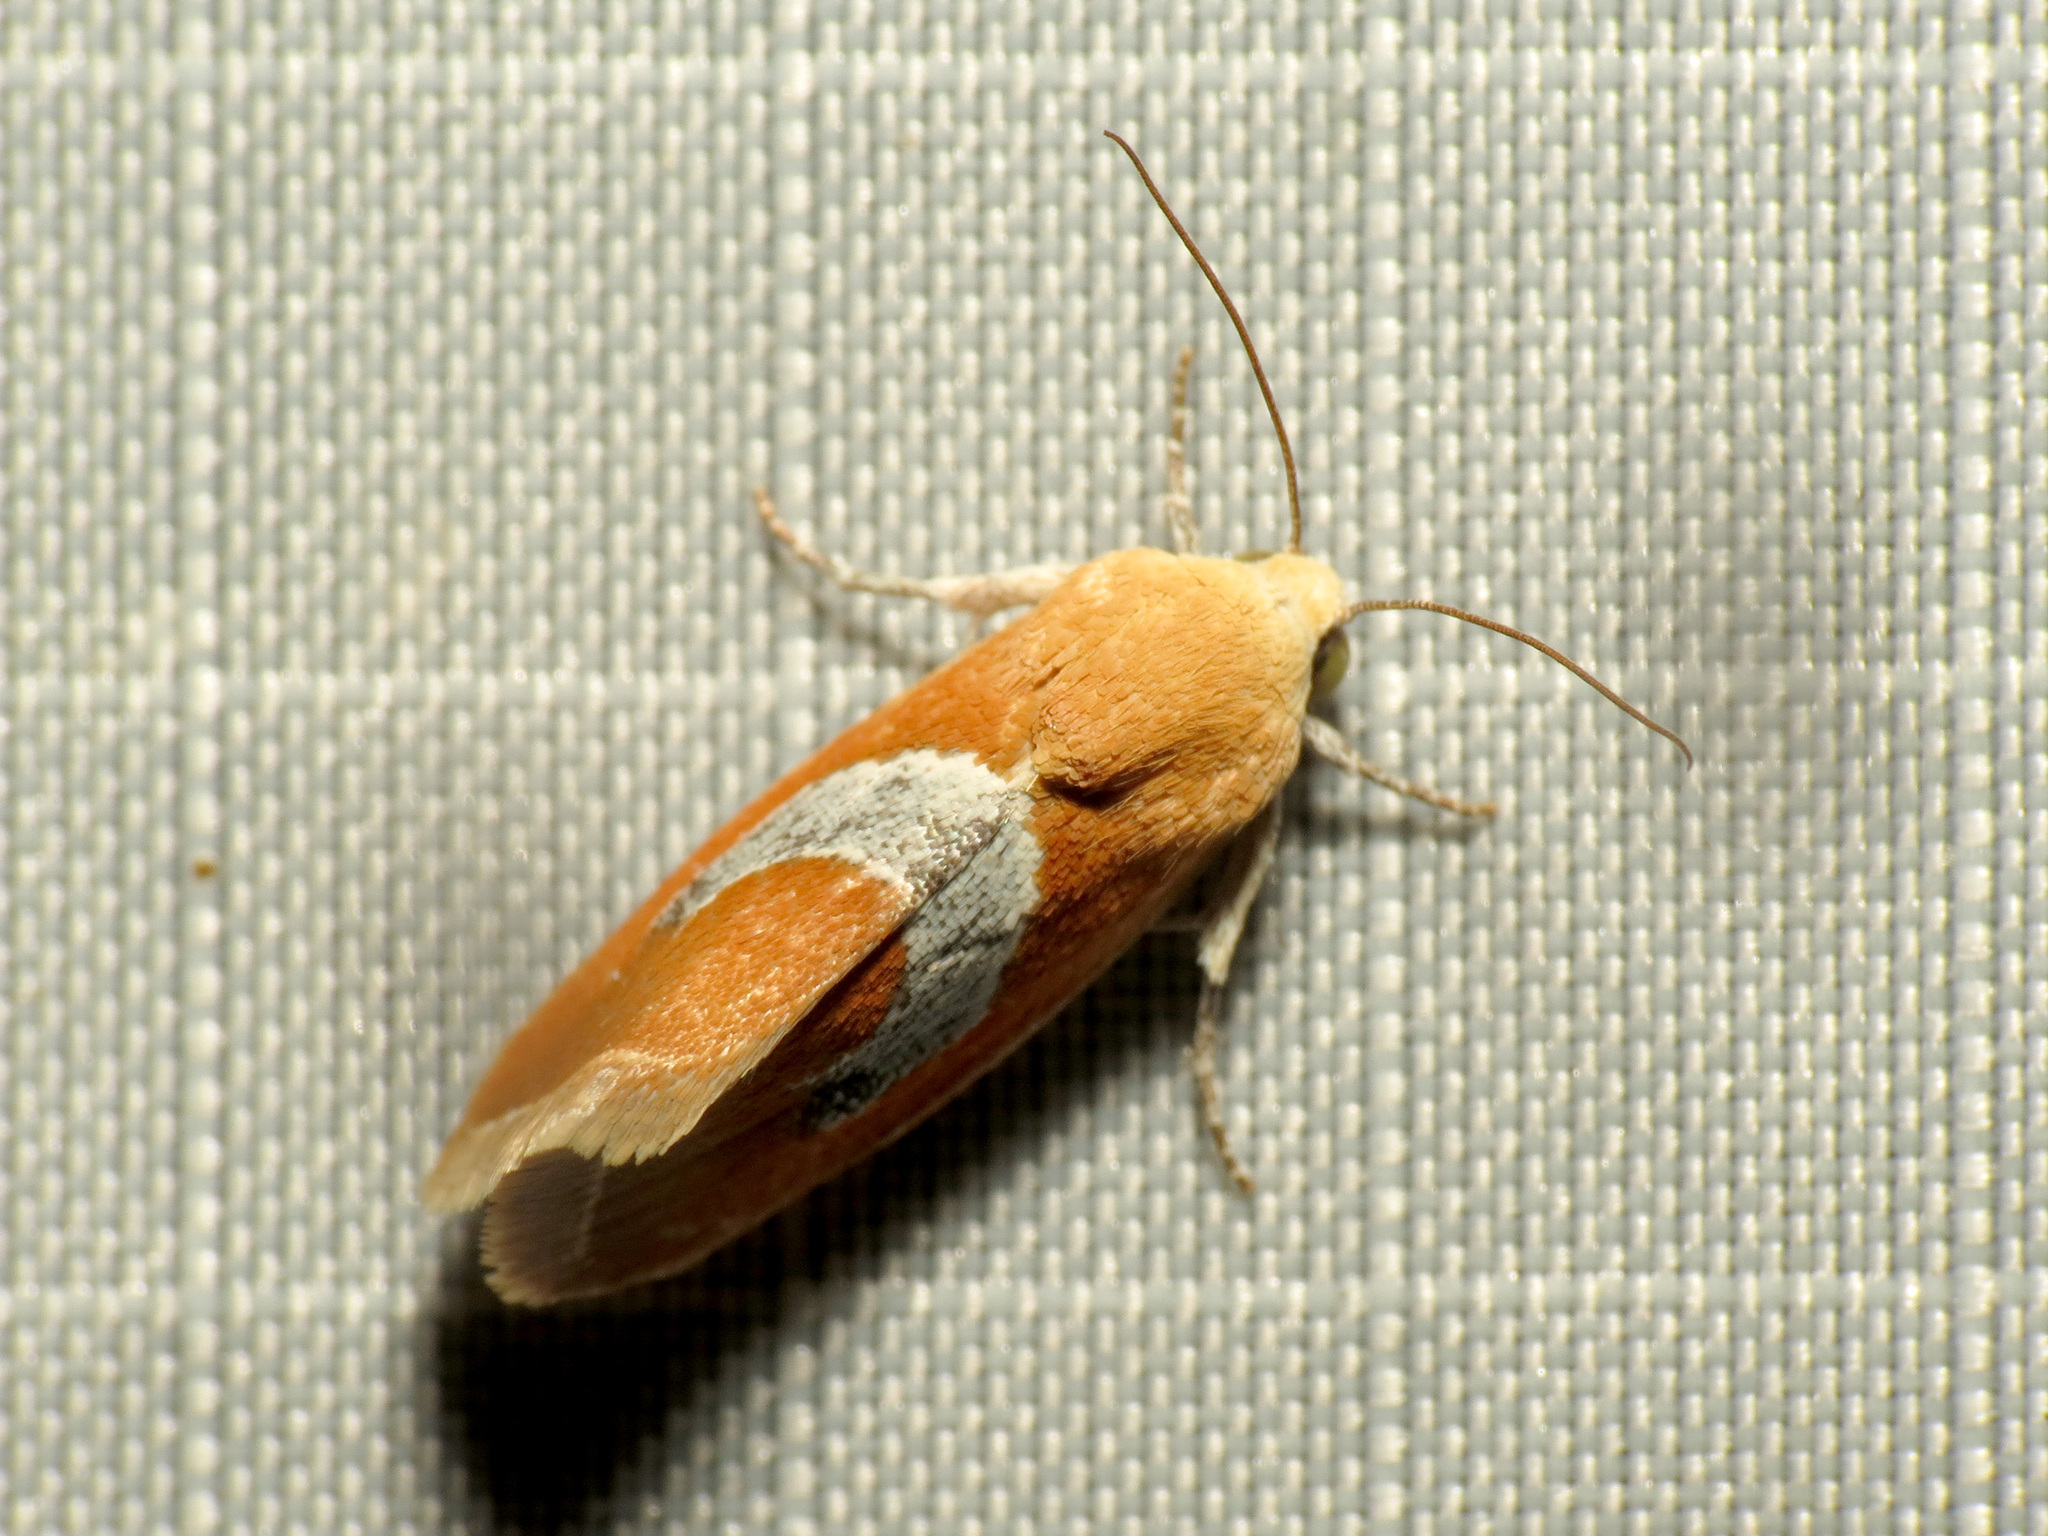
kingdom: Animalia
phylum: Arthropoda
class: Insecta
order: Lepidoptera
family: Noctuidae
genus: Ponometia
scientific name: Ponometia venustula
